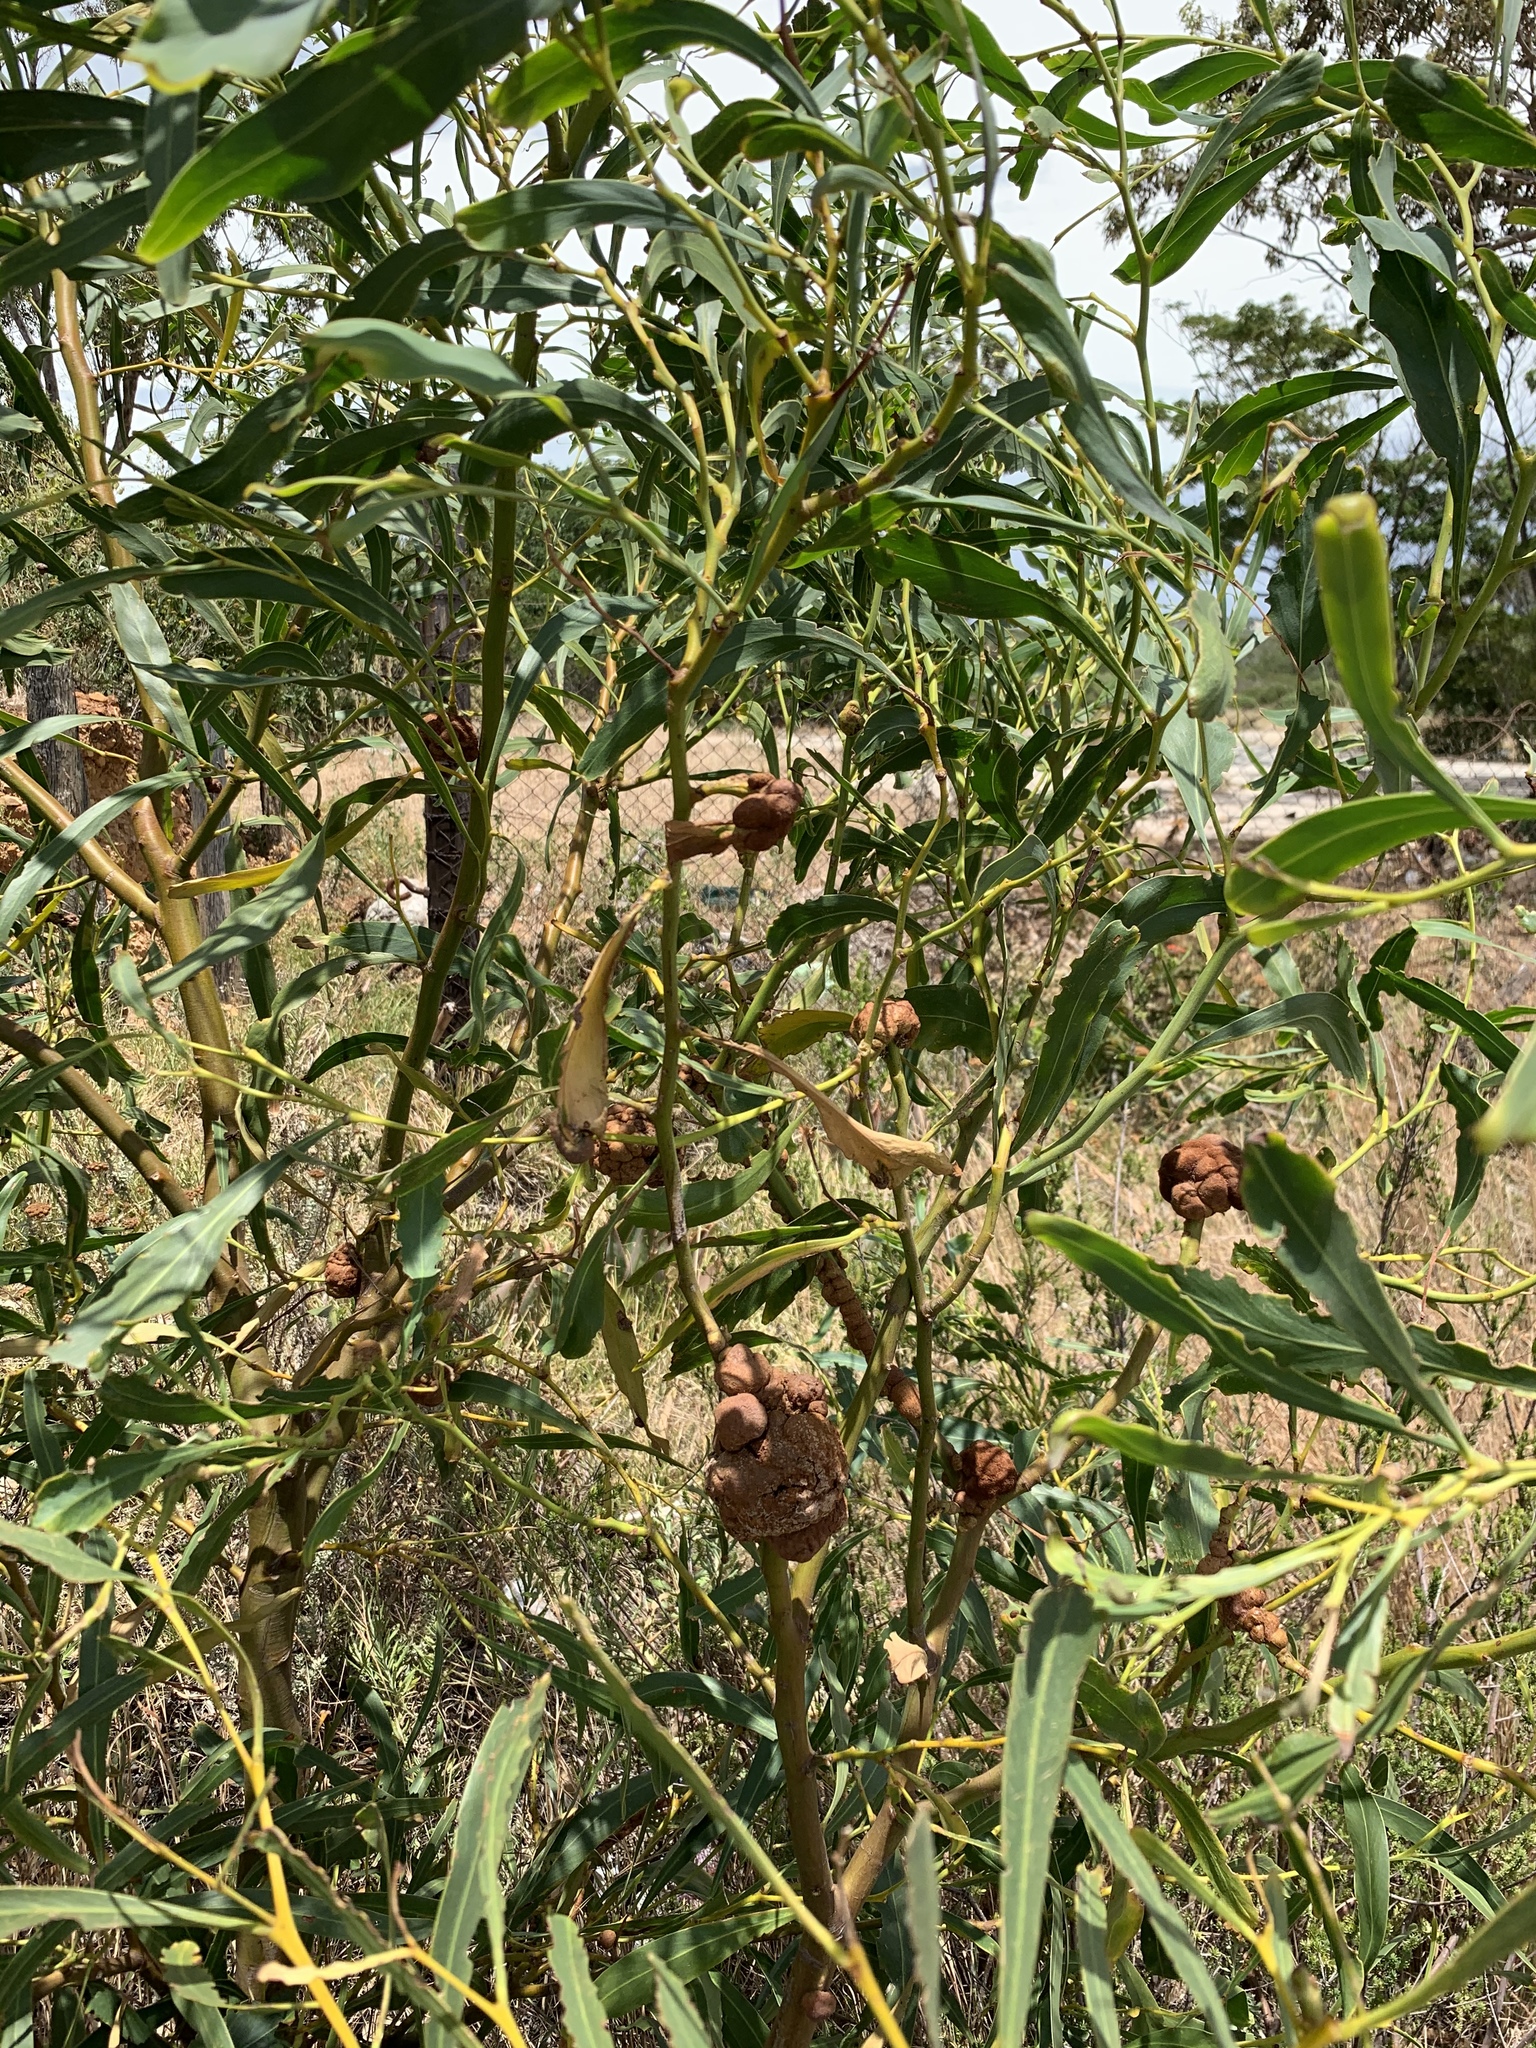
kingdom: Plantae
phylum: Tracheophyta
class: Magnoliopsida
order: Fabales
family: Fabaceae
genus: Acacia
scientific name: Acacia saligna
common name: Orange wattle
